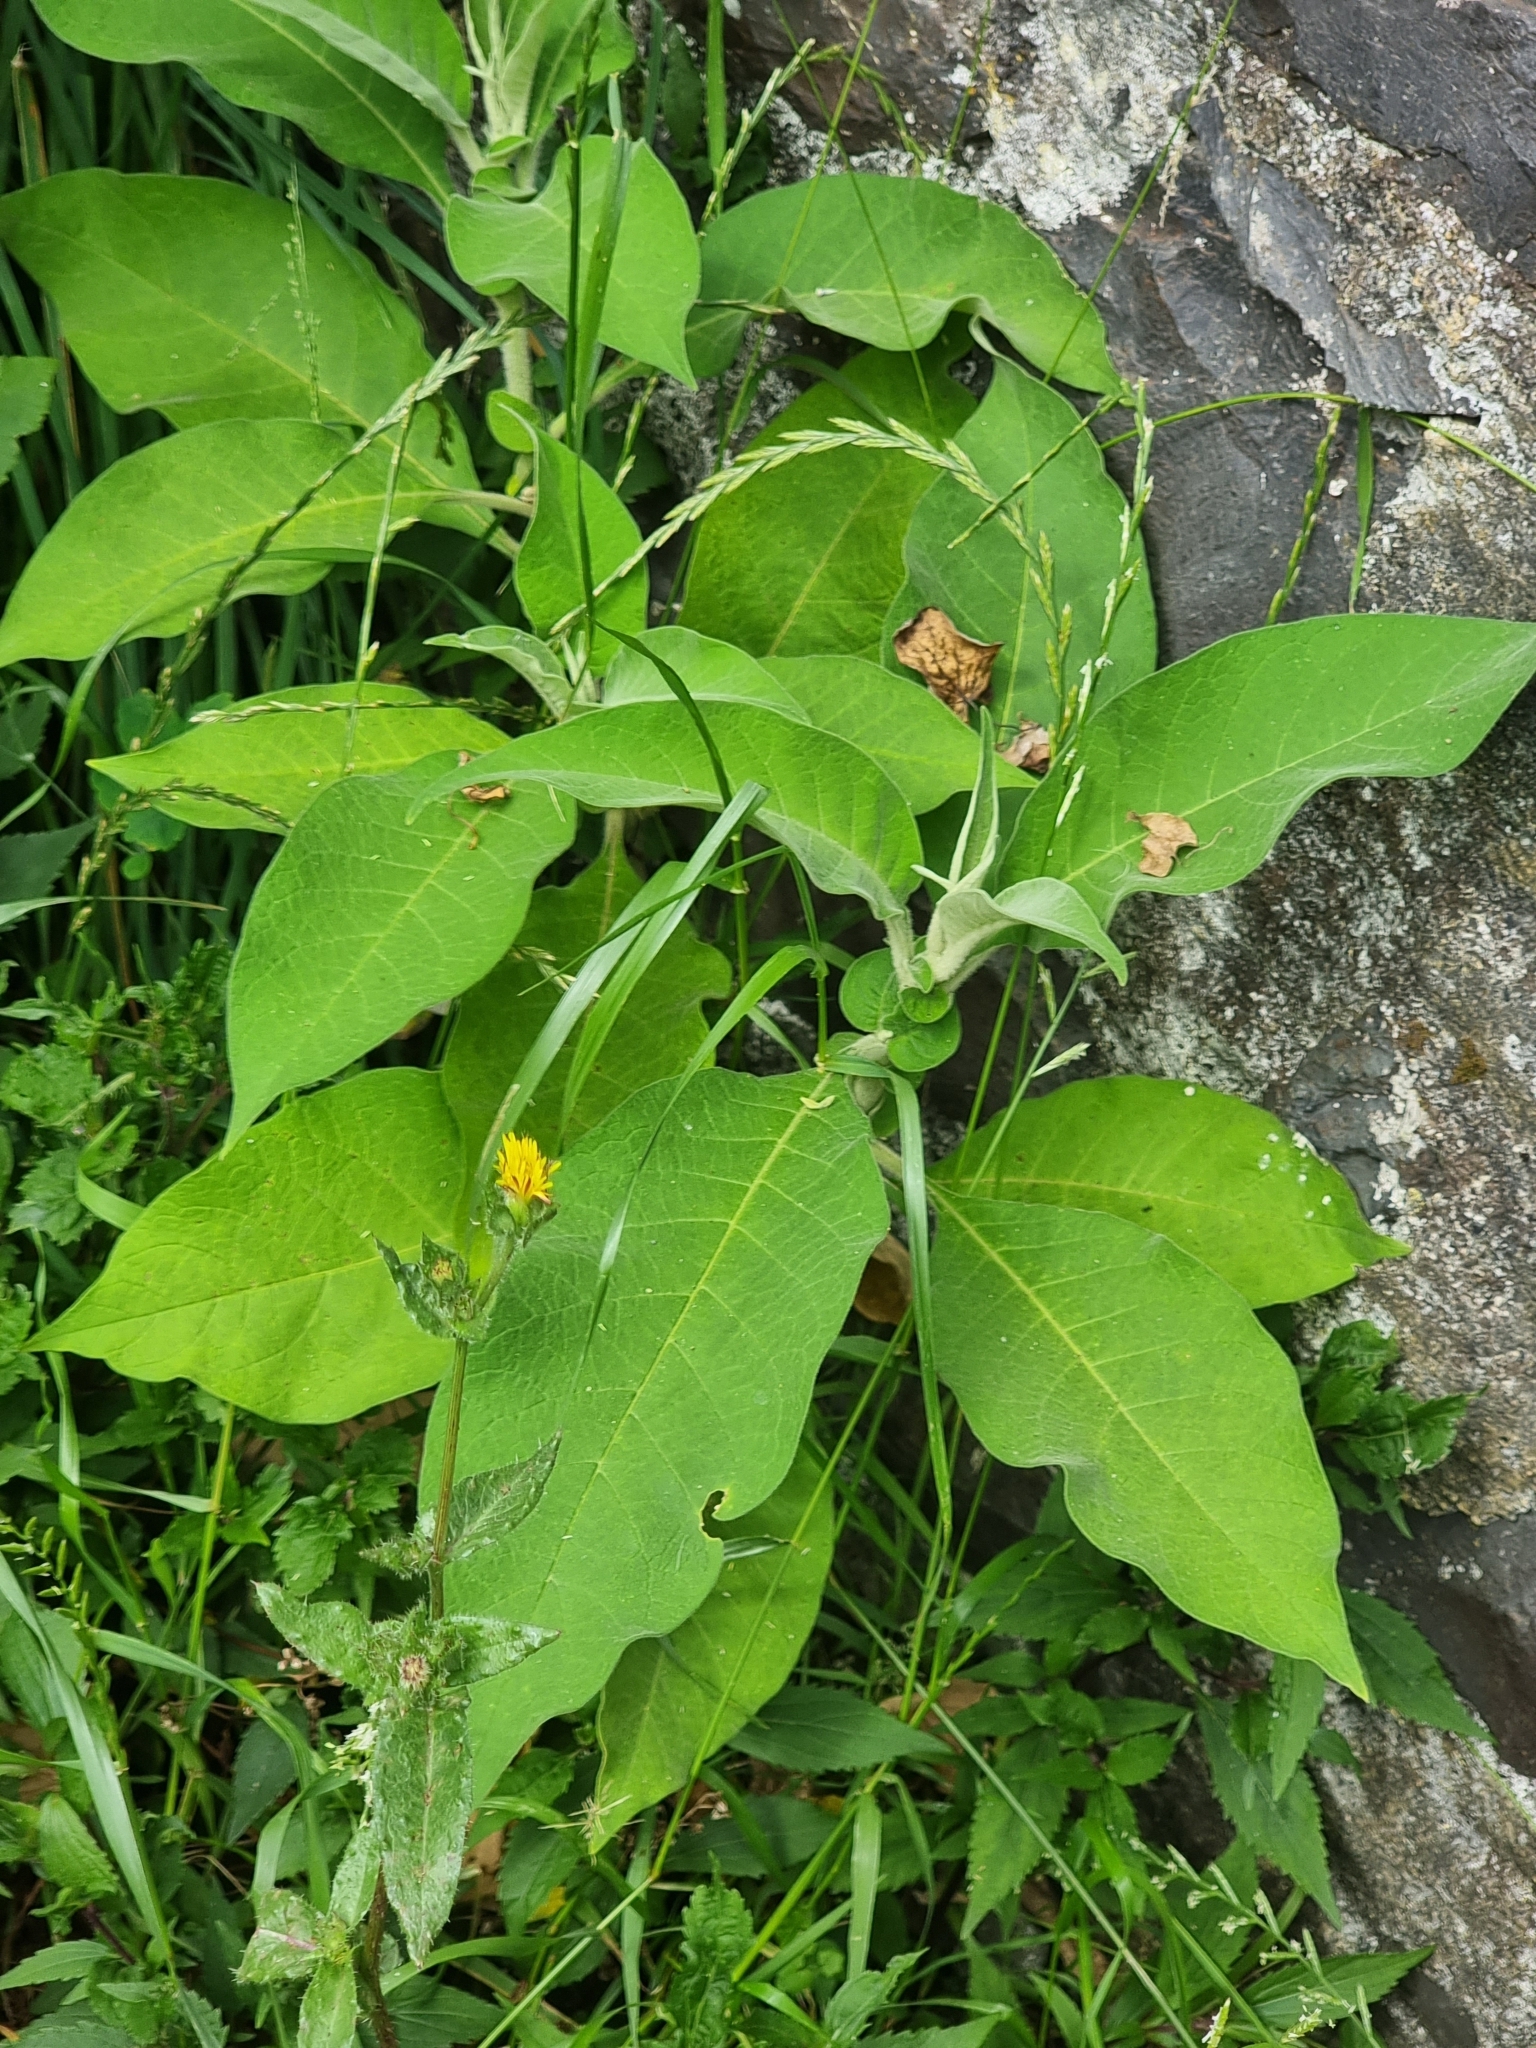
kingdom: Plantae
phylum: Tracheophyta
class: Magnoliopsida
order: Solanales
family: Solanaceae
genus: Solanum
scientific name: Solanum mauritianum
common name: Earleaf nightshade
